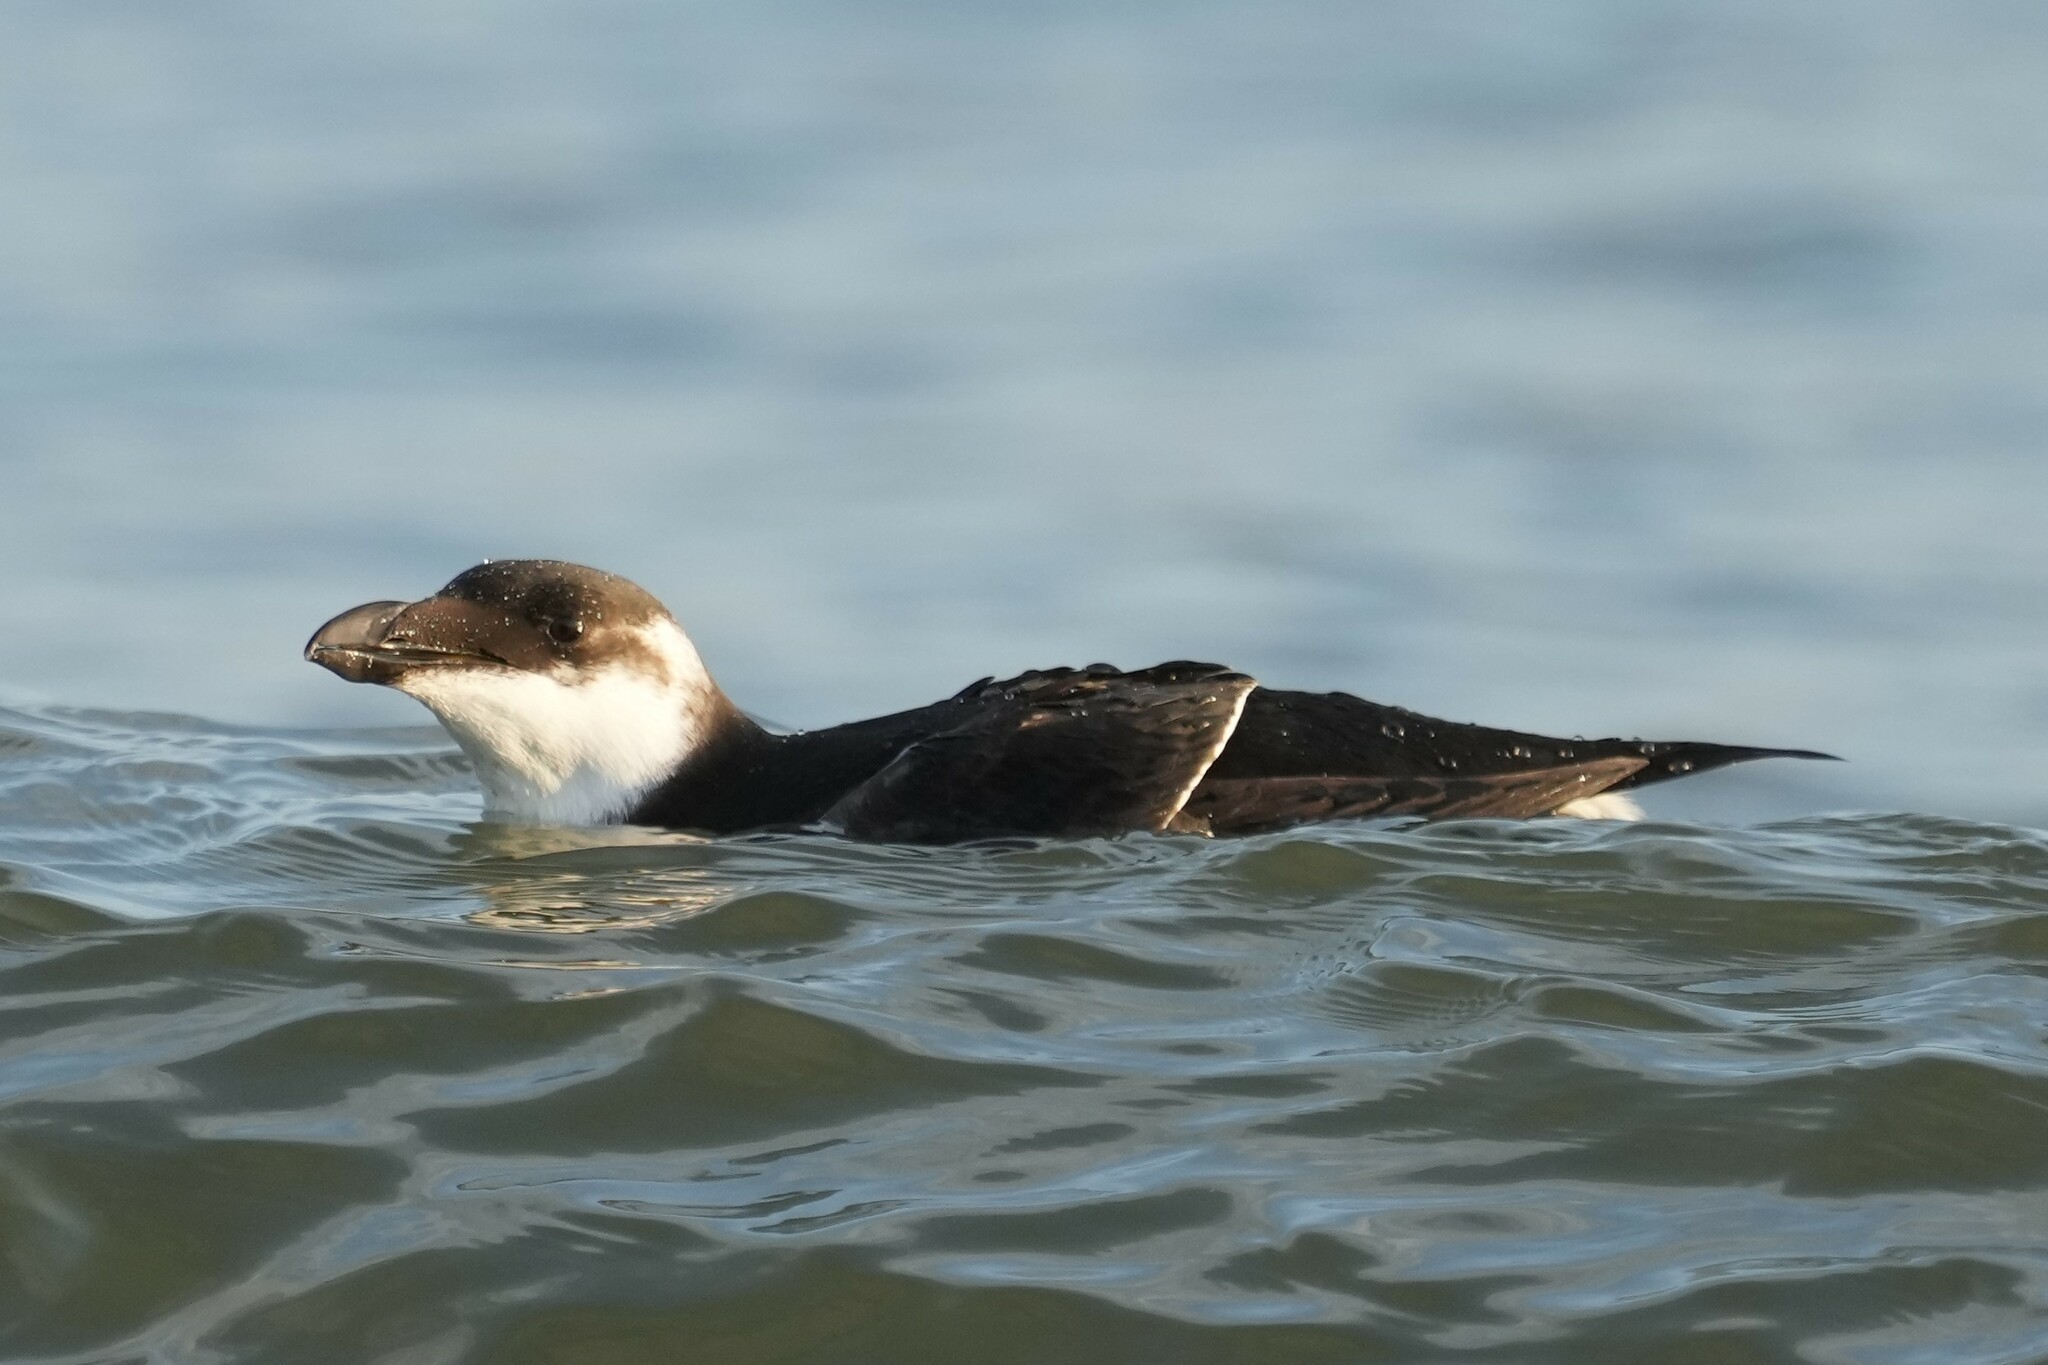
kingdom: Animalia
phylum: Chordata
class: Aves
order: Charadriiformes
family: Alcidae
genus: Alca
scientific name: Alca torda
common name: Razorbill
